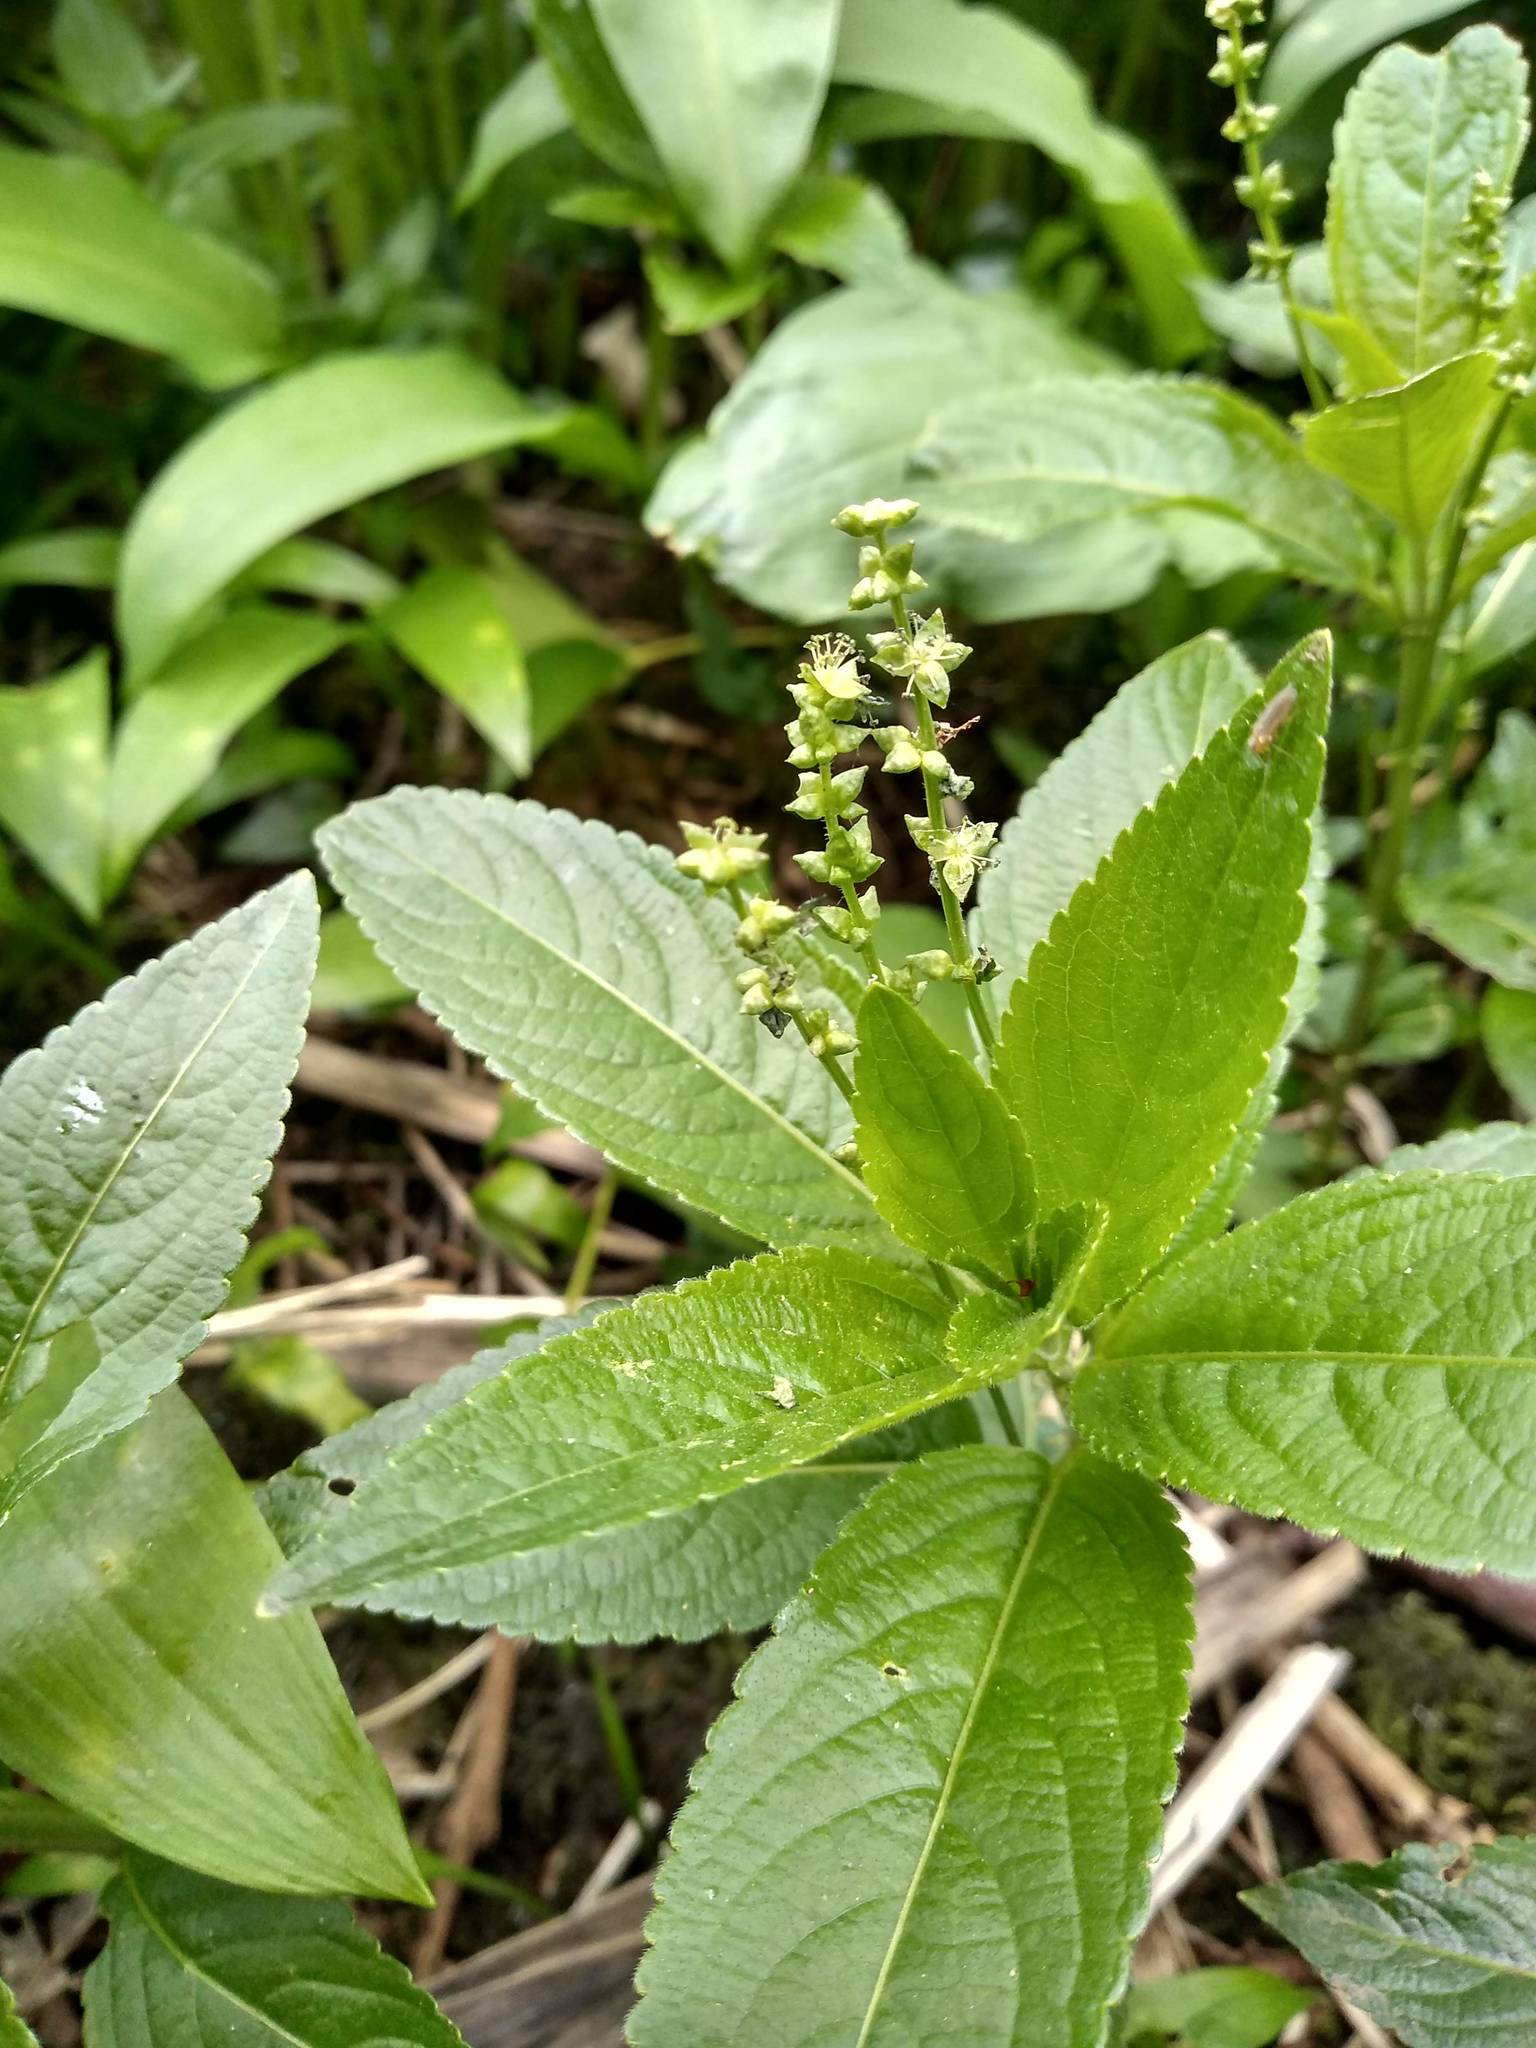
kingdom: Plantae
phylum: Tracheophyta
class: Magnoliopsida
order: Malpighiales
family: Euphorbiaceae
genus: Mercurialis
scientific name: Mercurialis perennis
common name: Dog mercury
